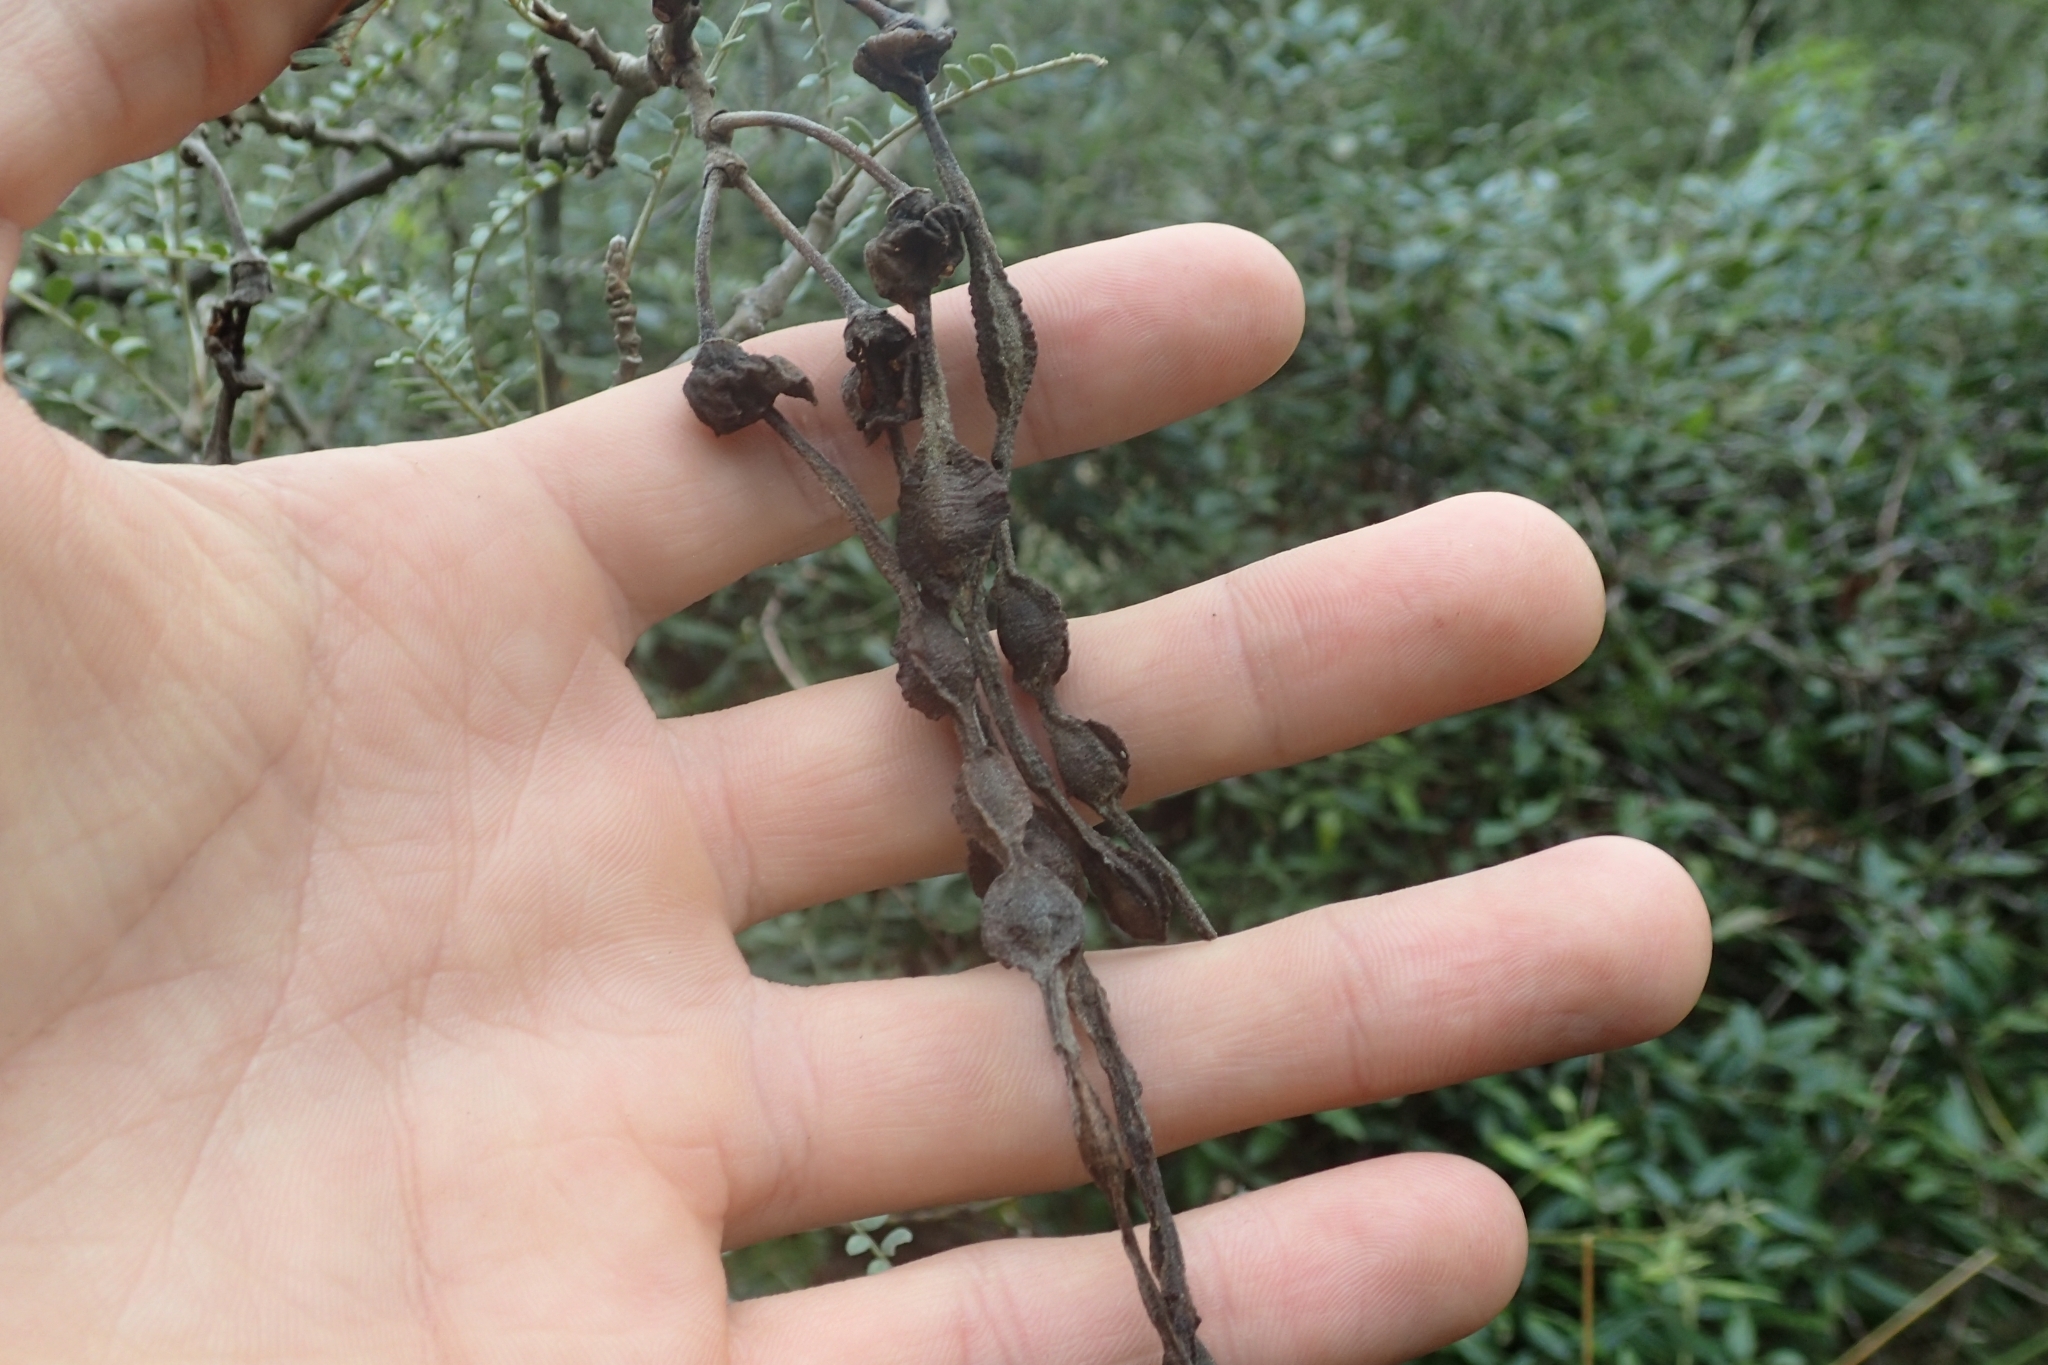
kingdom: Plantae
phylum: Tracheophyta
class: Magnoliopsida
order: Fabales
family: Fabaceae
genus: Sophora
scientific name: Sophora godleyi
